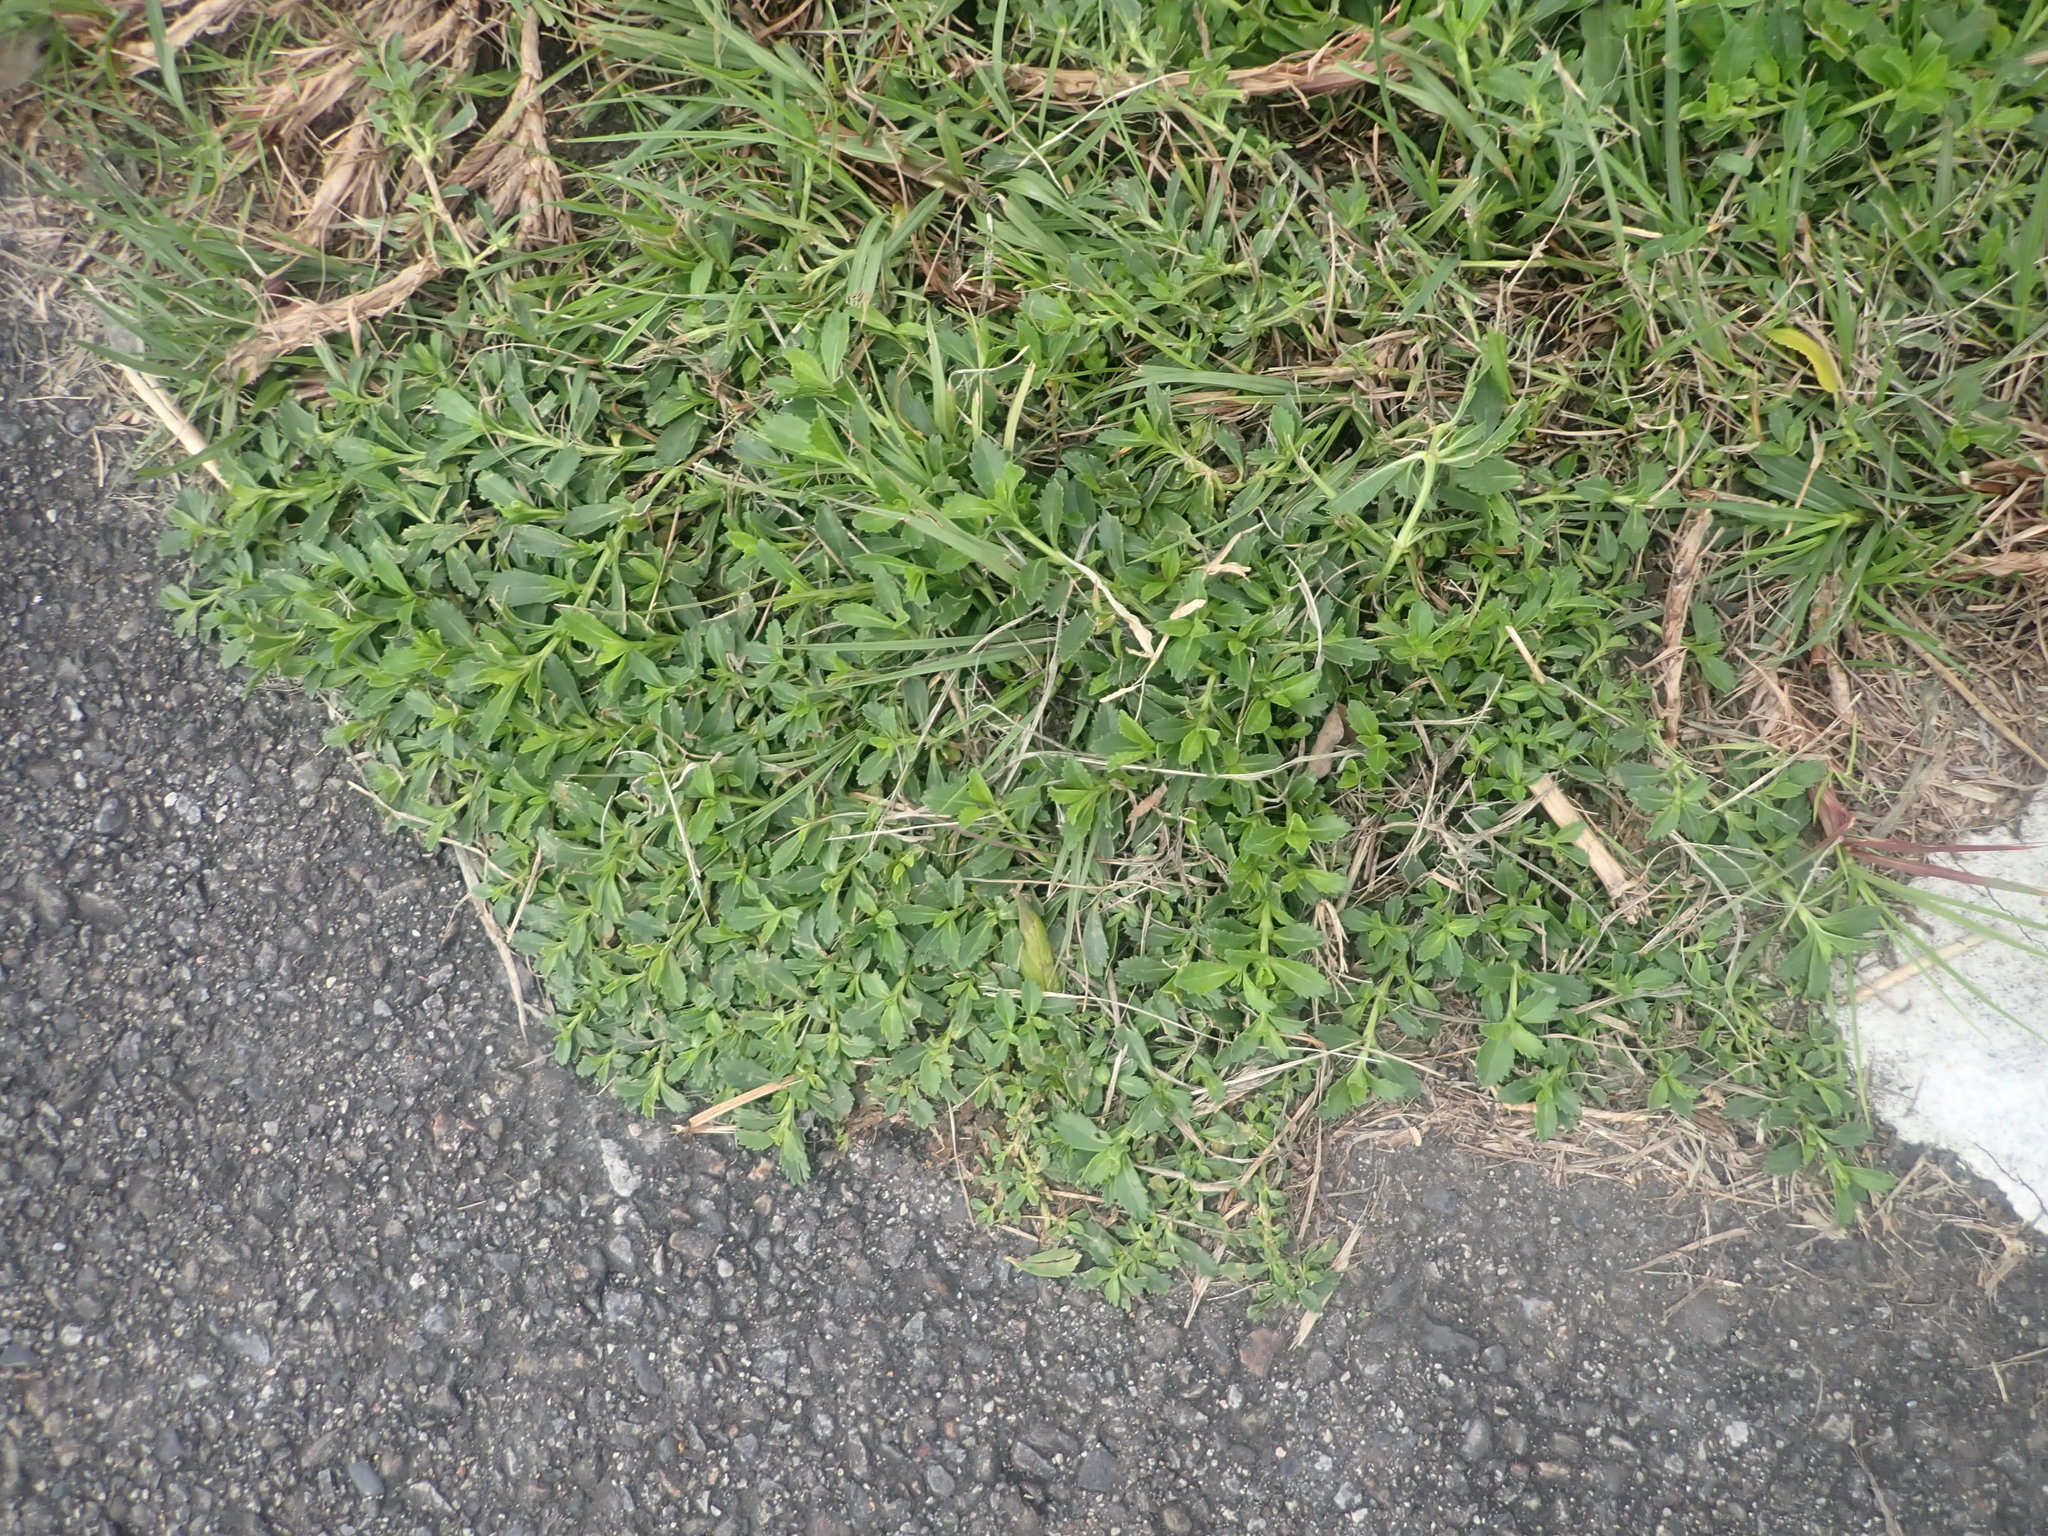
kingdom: Plantae
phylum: Tracheophyta
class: Magnoliopsida
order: Lamiales
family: Verbenaceae
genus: Phyla
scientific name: Phyla nodiflora
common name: Frogfruit
